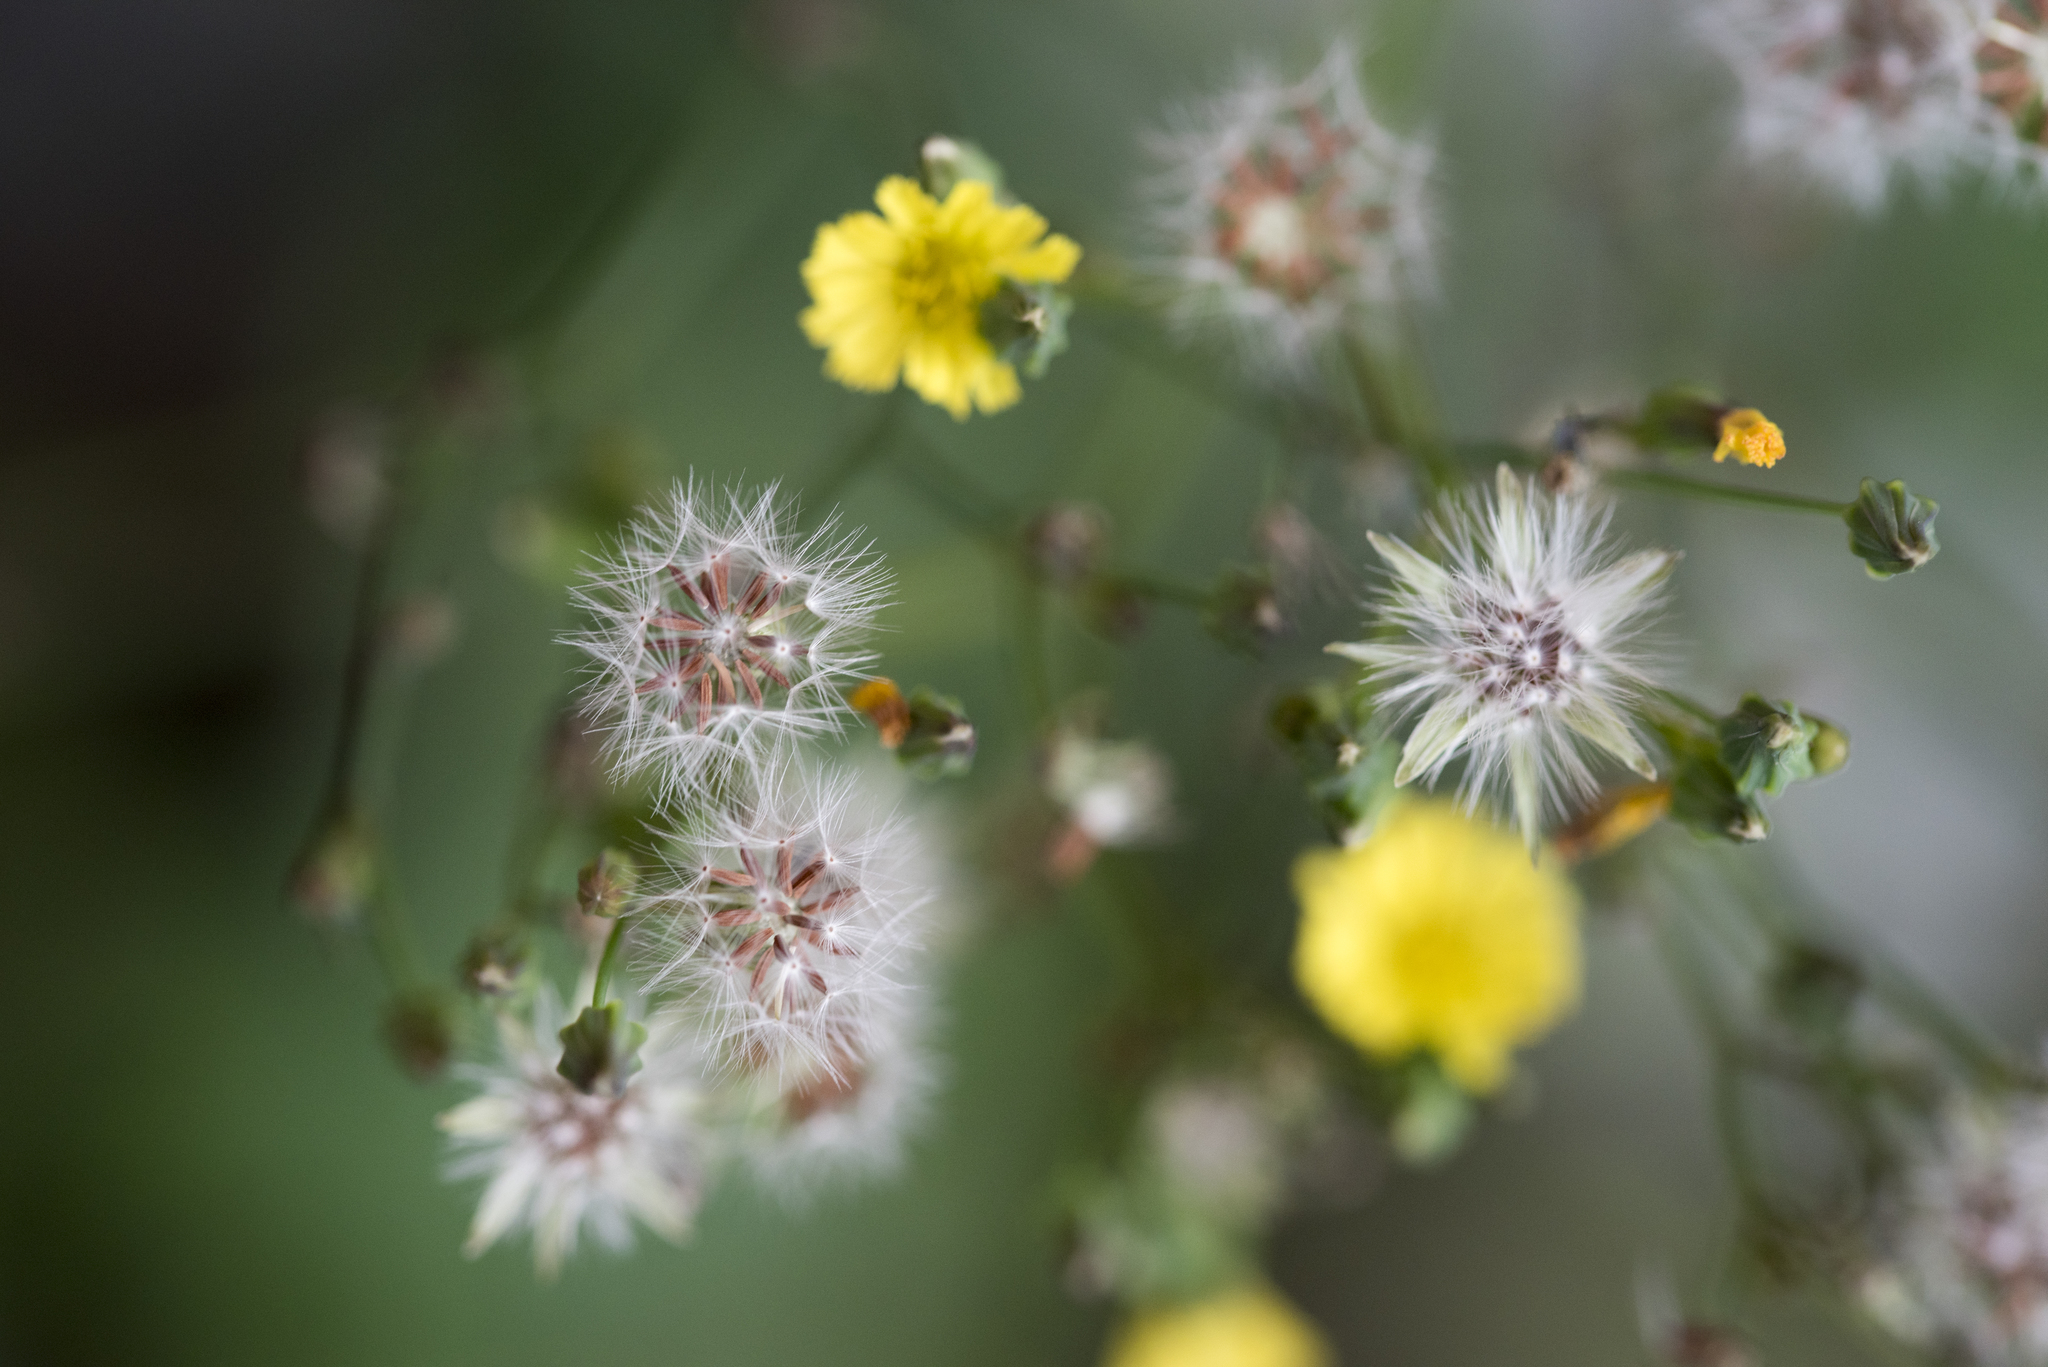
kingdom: Plantae
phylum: Tracheophyta
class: Magnoliopsida
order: Asterales
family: Asteraceae
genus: Youngia
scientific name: Youngia japonica
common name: Oriental false hawksbeard
